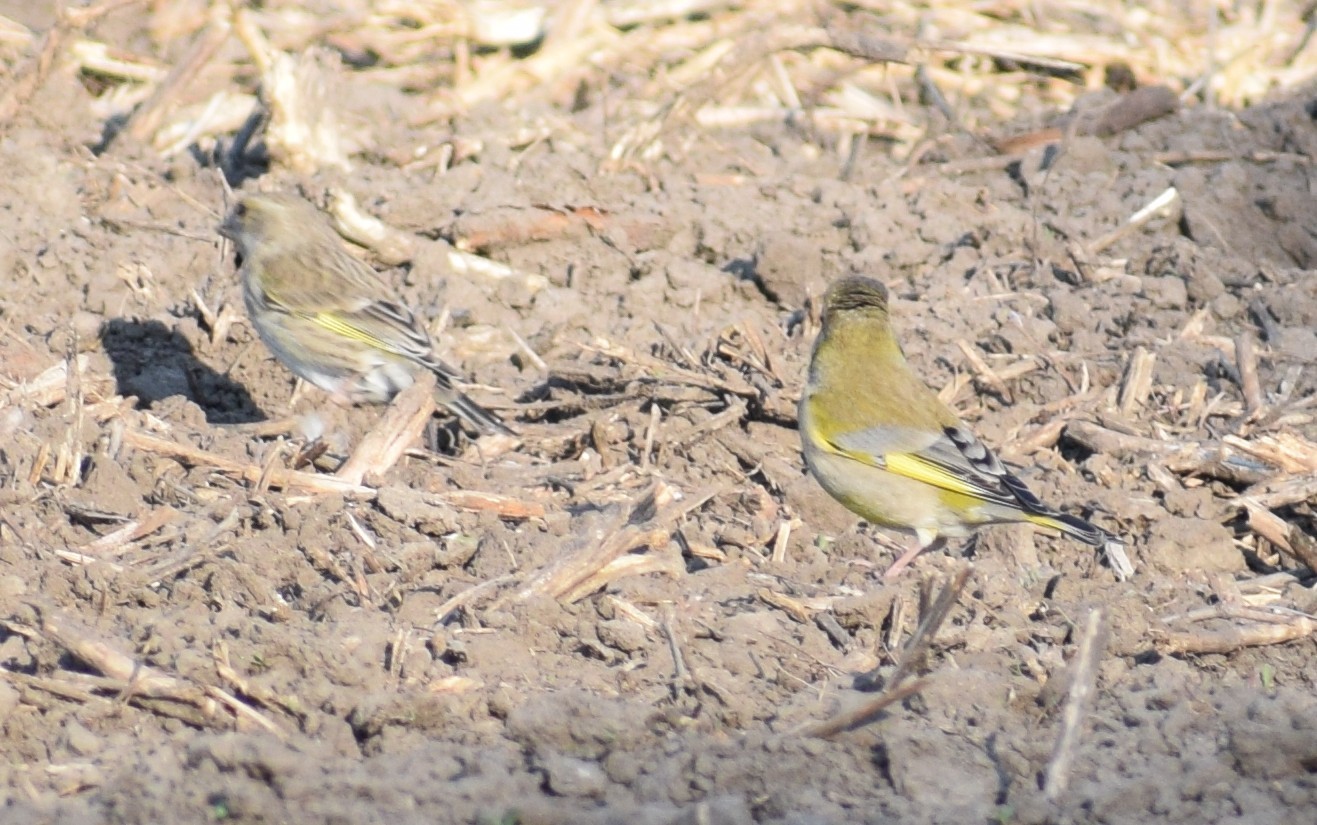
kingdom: Plantae
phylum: Tracheophyta
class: Liliopsida
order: Poales
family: Poaceae
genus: Chloris
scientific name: Chloris chloris
